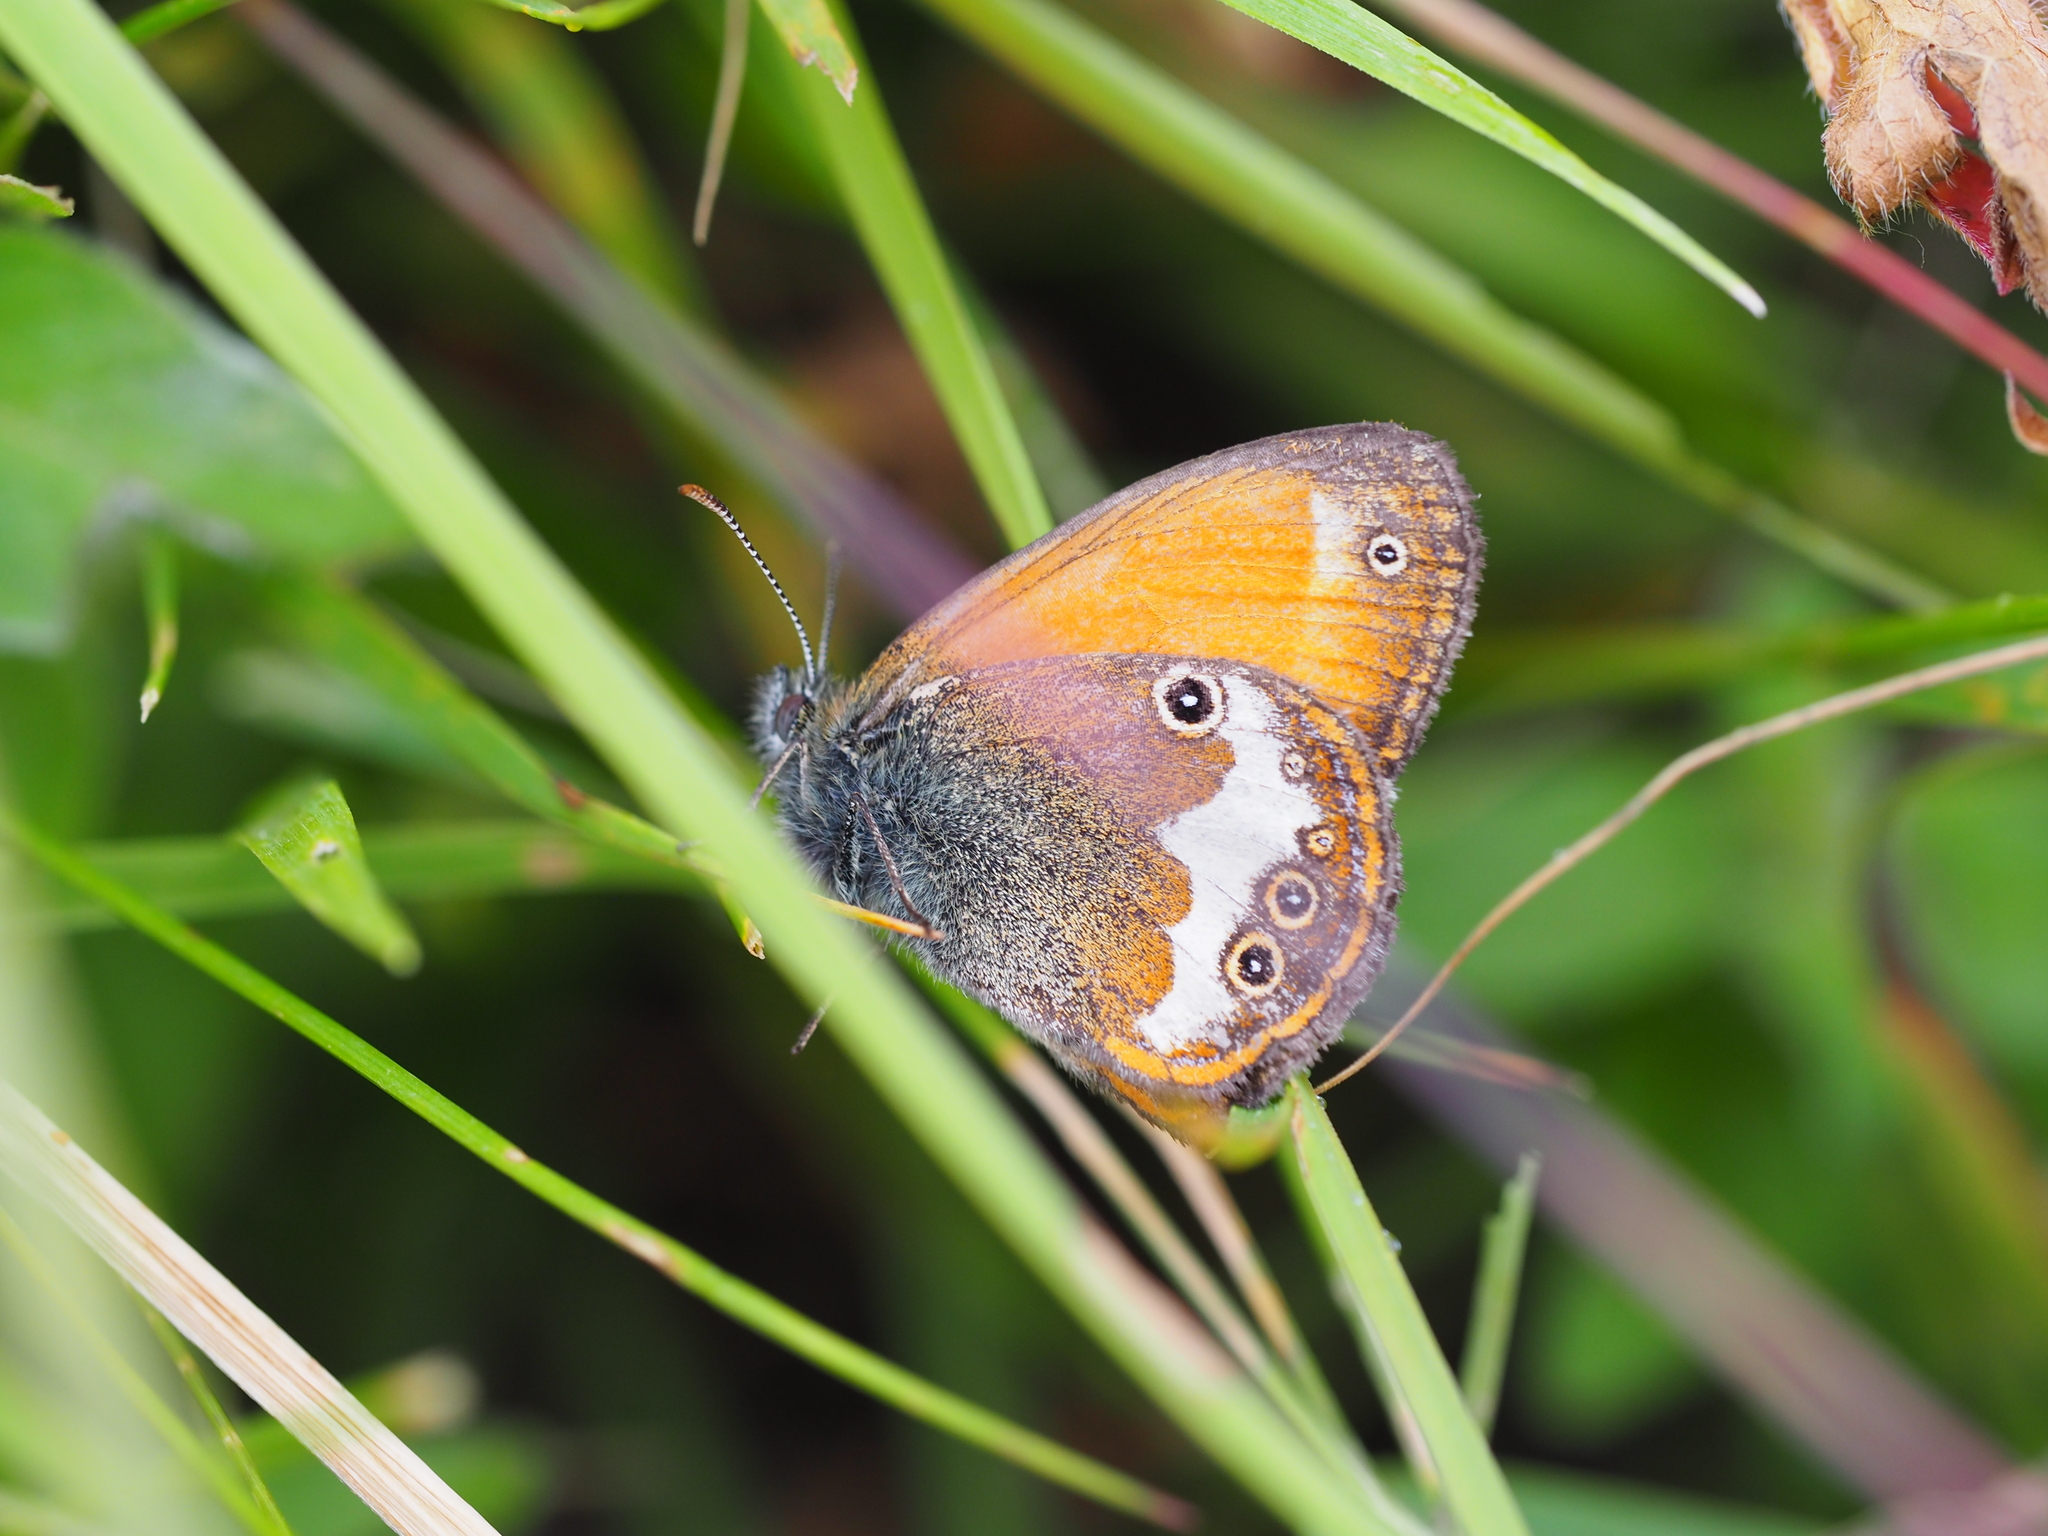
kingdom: Animalia
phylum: Arthropoda
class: Insecta
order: Lepidoptera
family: Nymphalidae
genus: Coenonympha
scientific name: Coenonympha arcania
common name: Pearly heath
